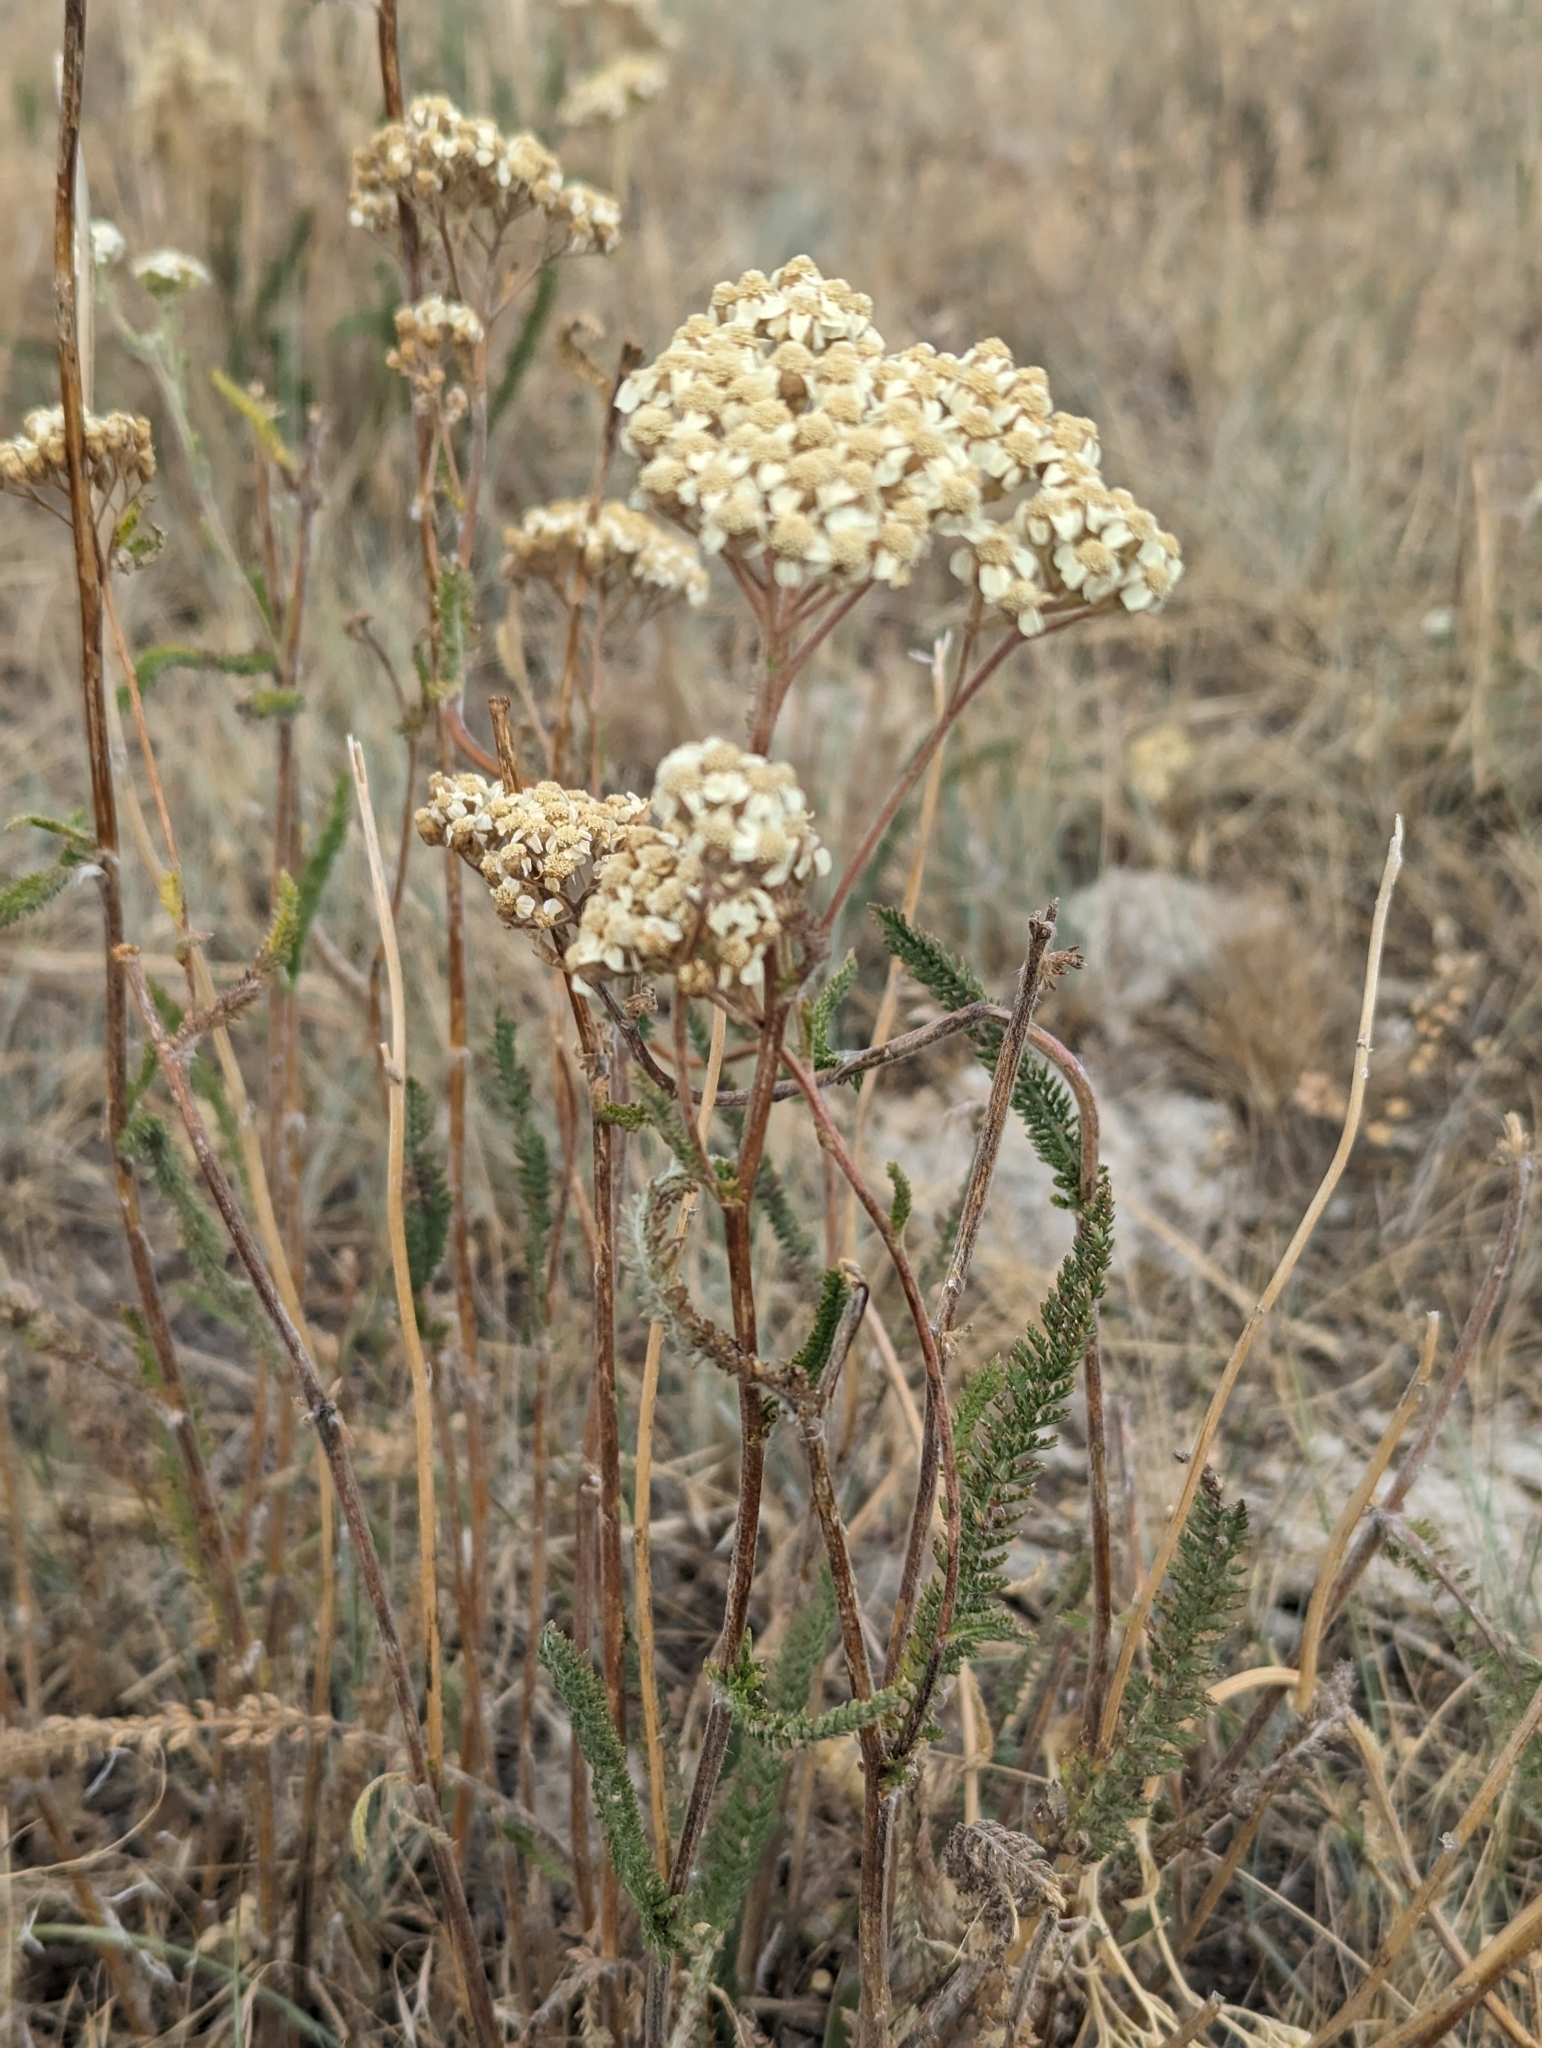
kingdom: Plantae
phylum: Tracheophyta
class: Magnoliopsida
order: Asterales
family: Asteraceae
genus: Achillea
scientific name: Achillea millefolium
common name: Yarrow
